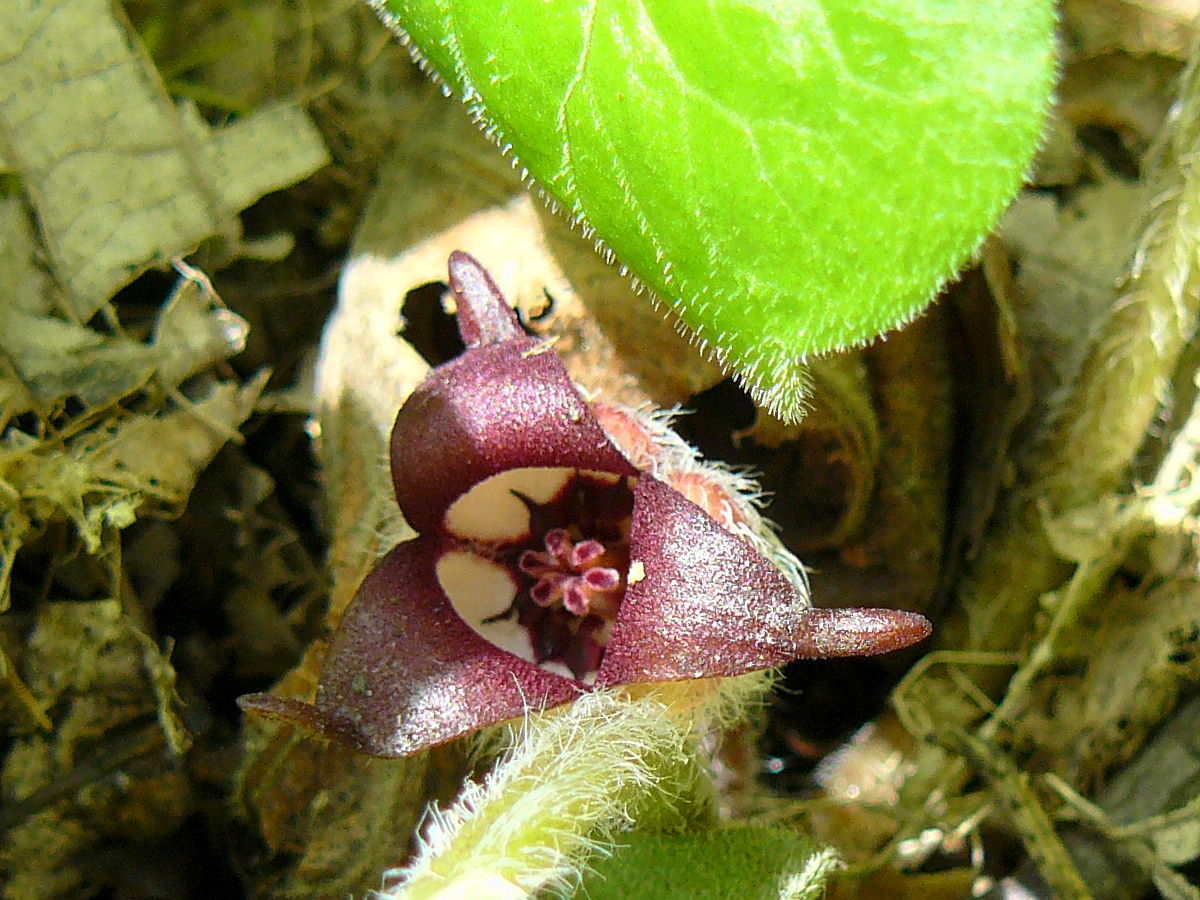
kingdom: Plantae
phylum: Tracheophyta
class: Magnoliopsida
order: Piperales
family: Aristolochiaceae
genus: Asarum
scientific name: Asarum canadense
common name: Wild ginger
